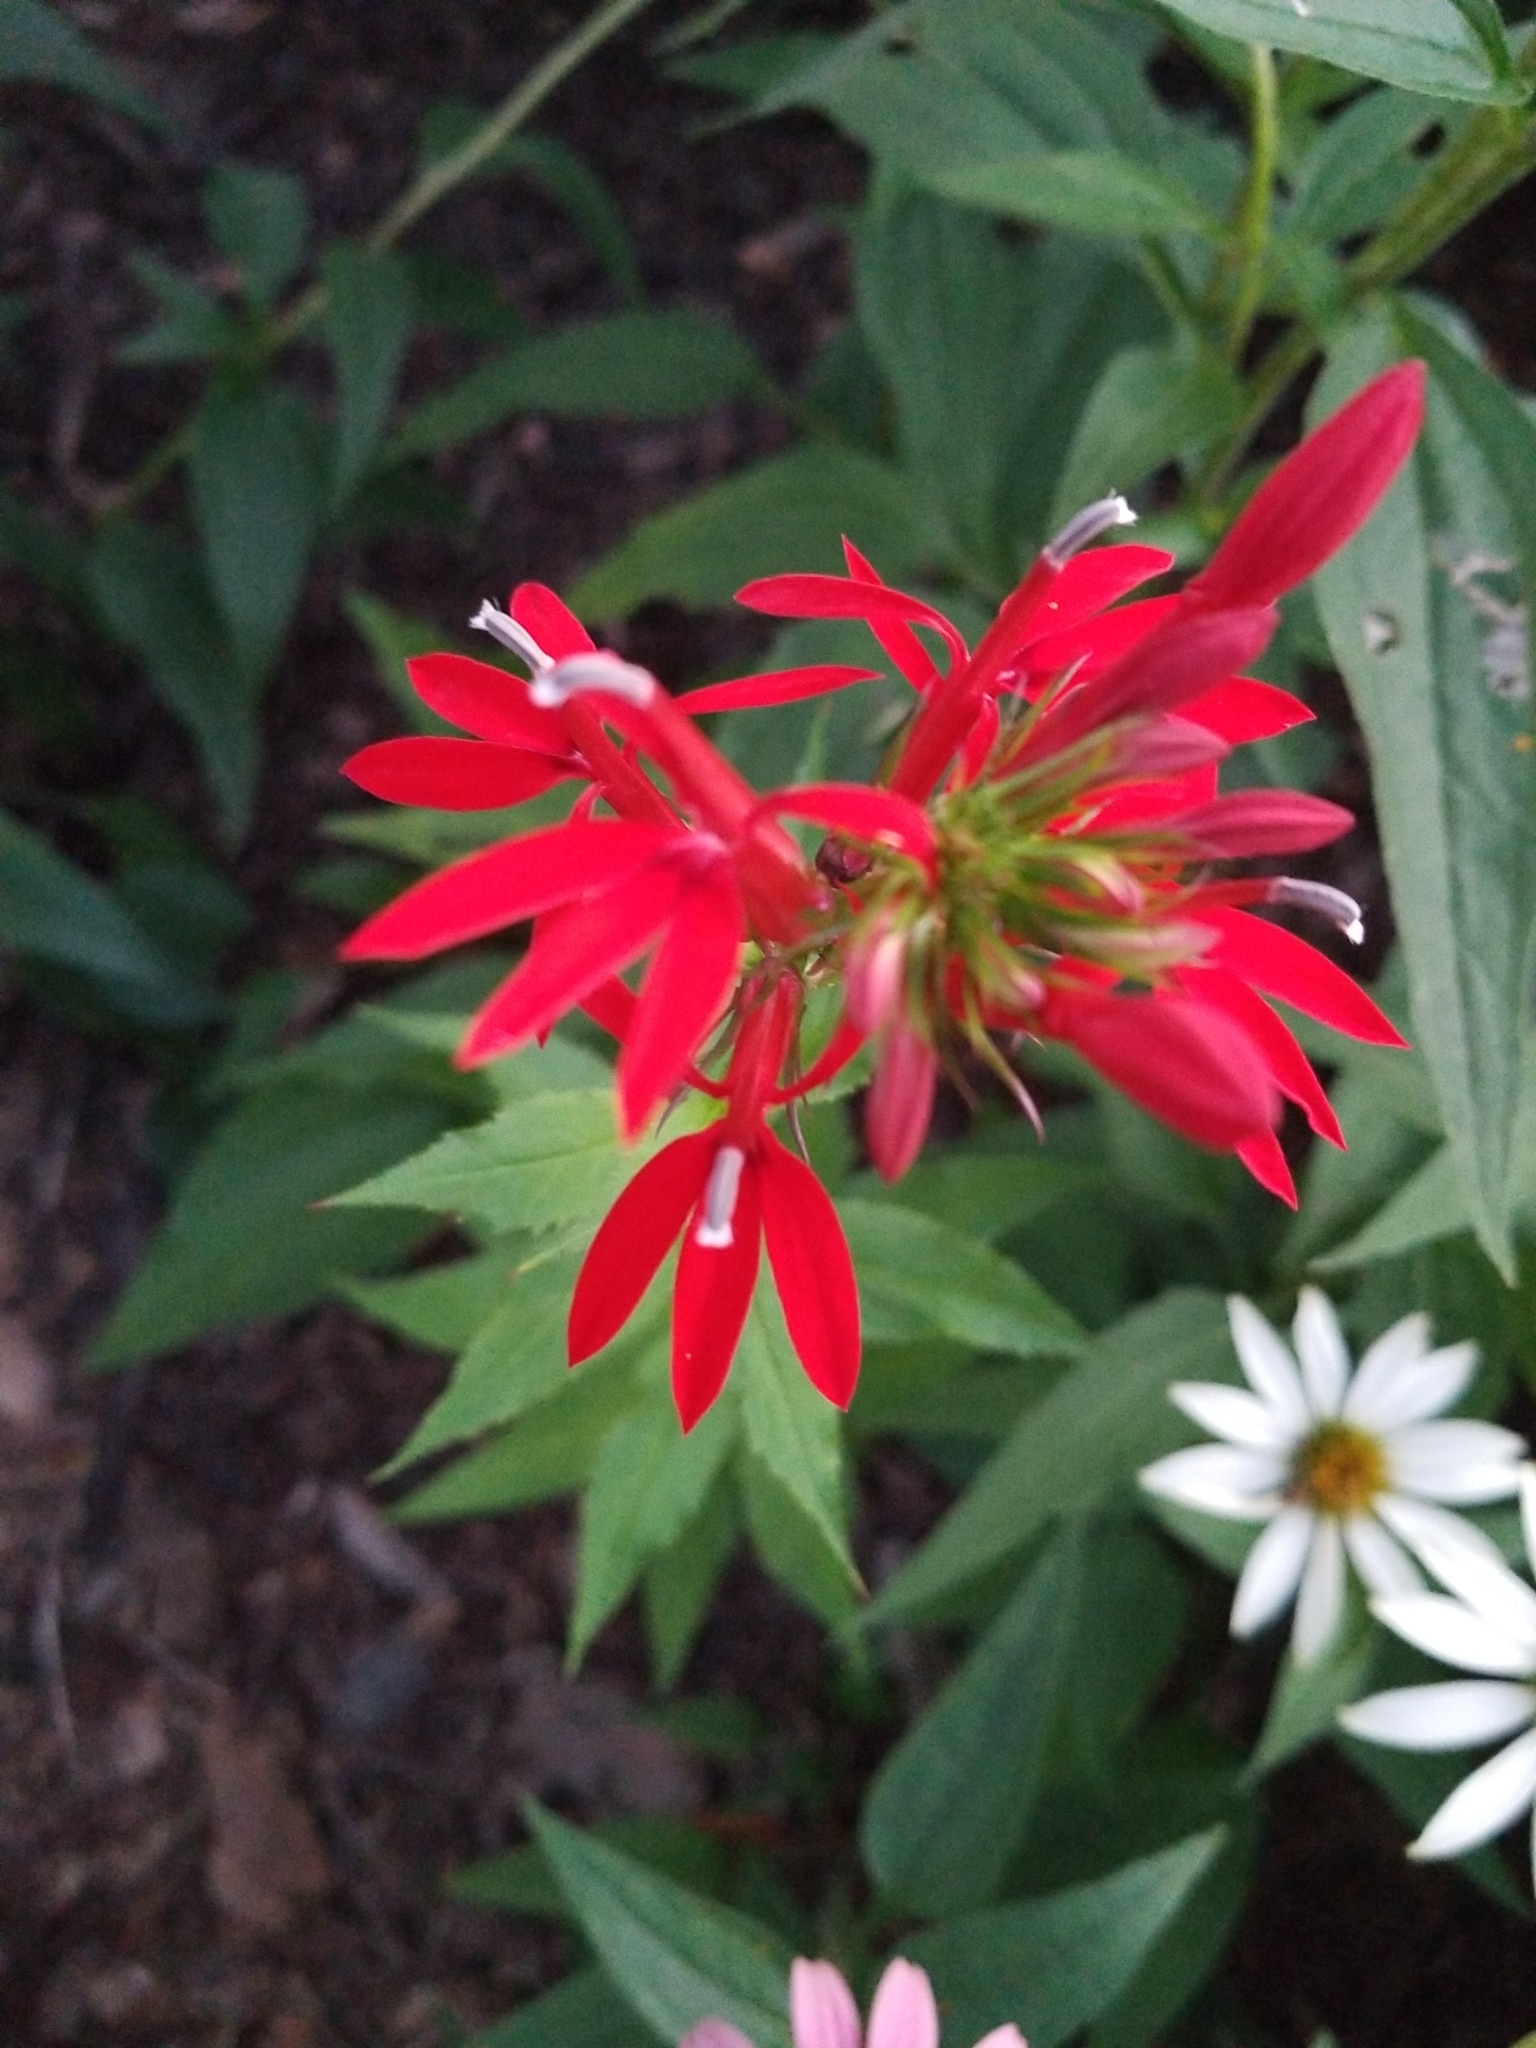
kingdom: Plantae
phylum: Tracheophyta
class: Magnoliopsida
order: Asterales
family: Campanulaceae
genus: Lobelia
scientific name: Lobelia cardinalis
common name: Cardinal flower
